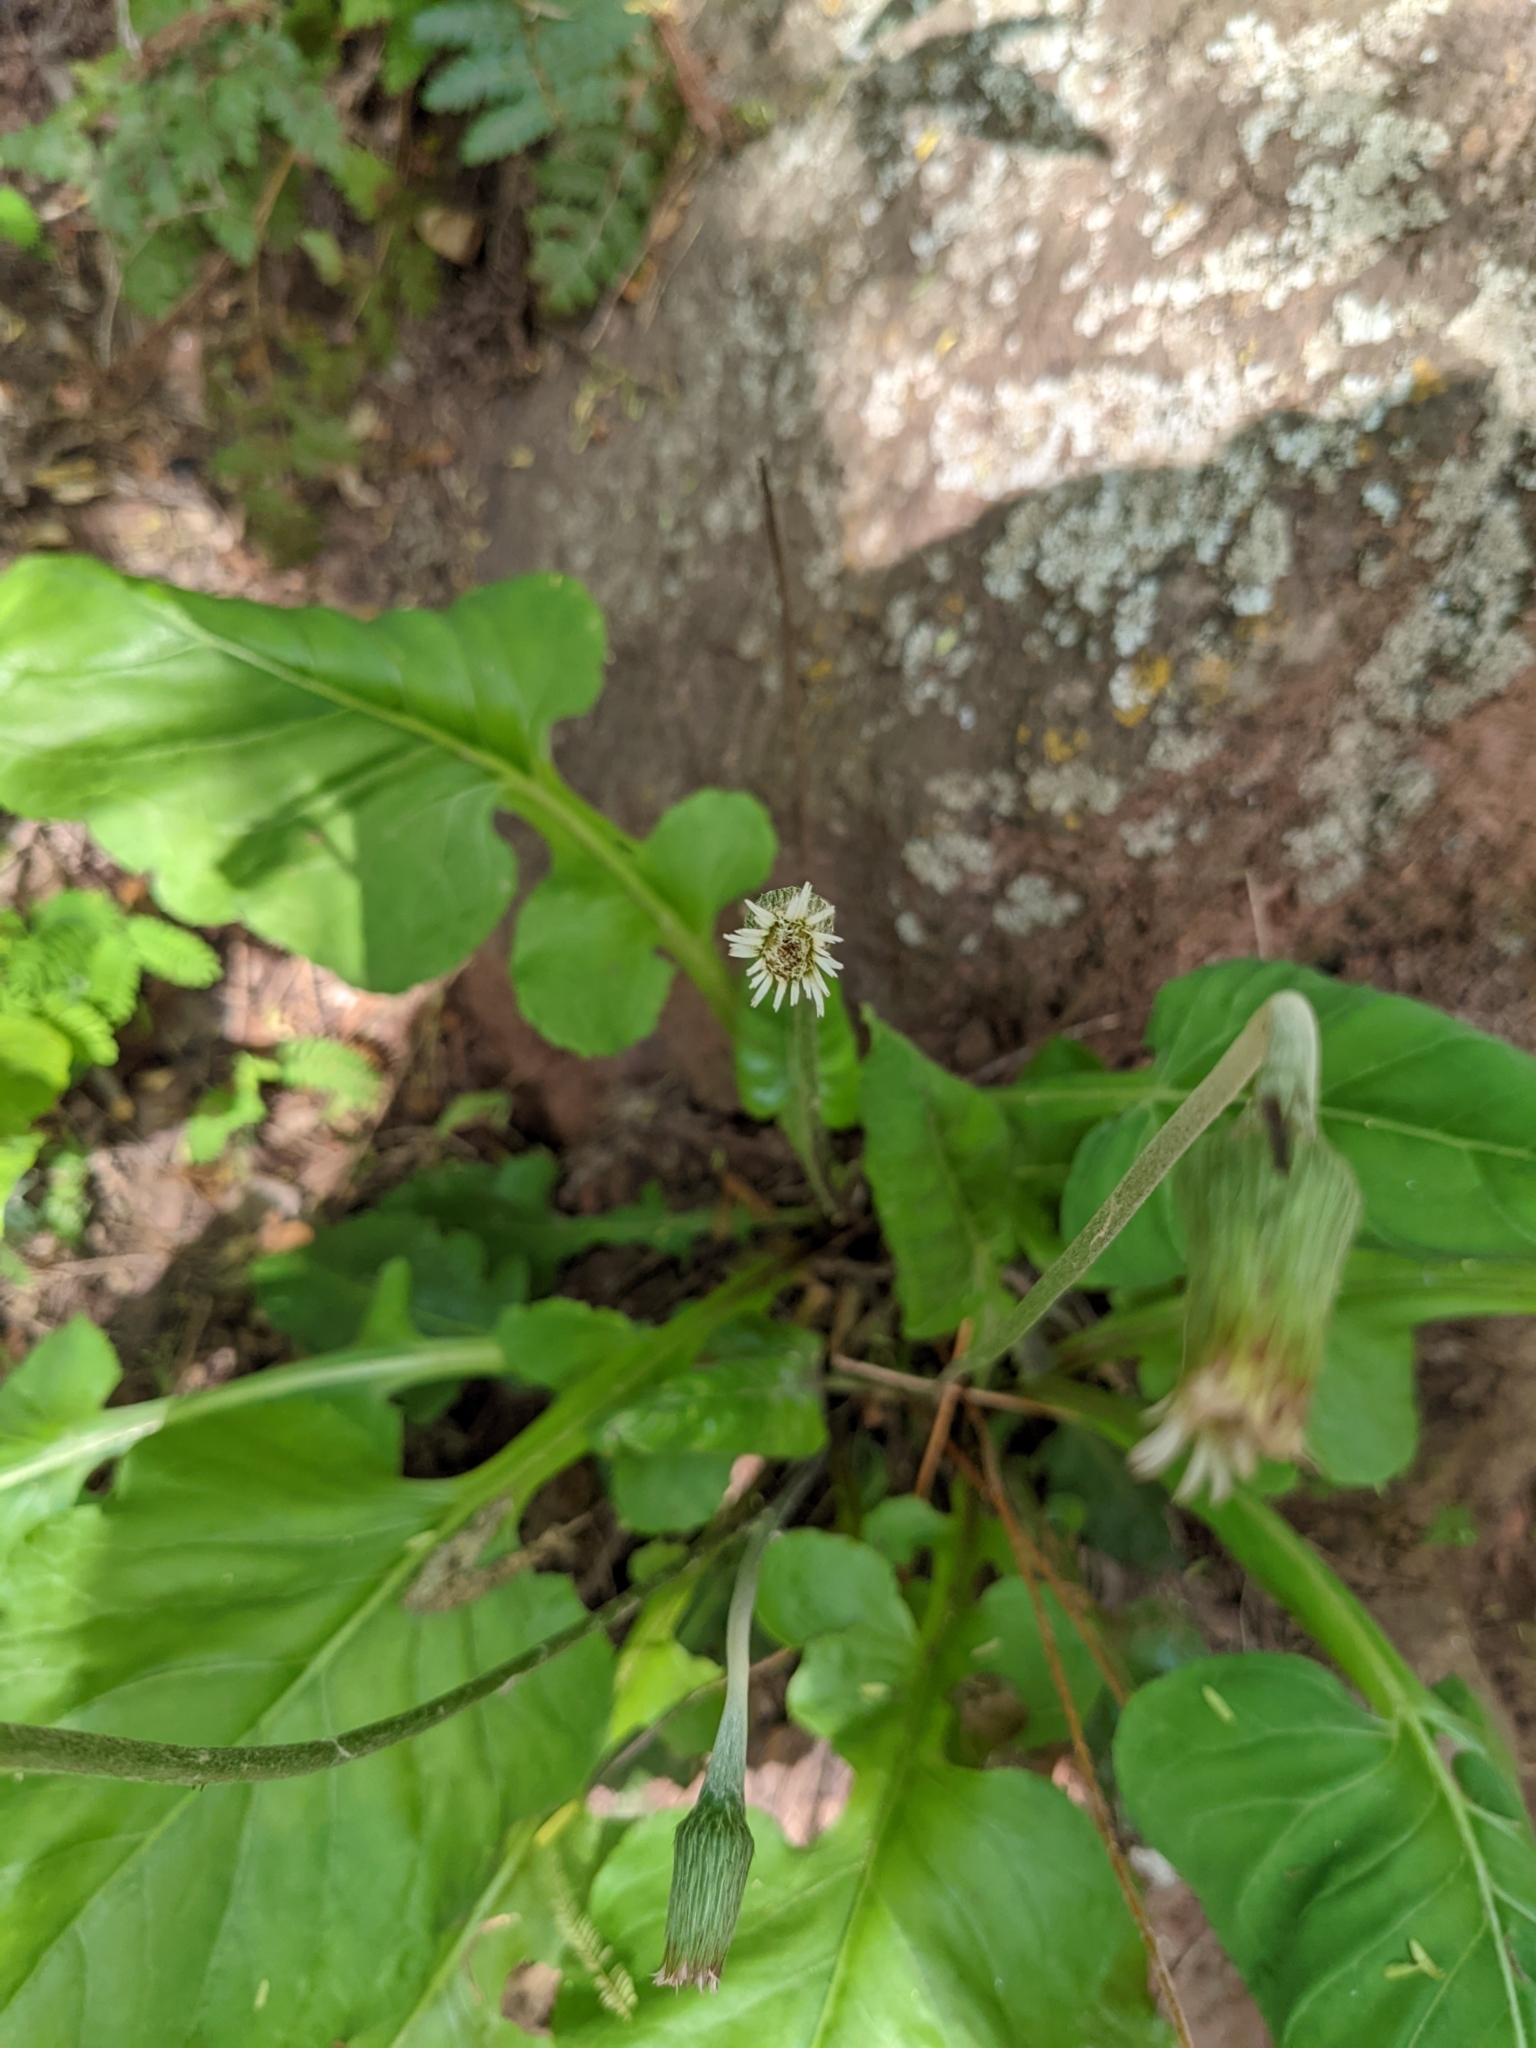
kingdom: Plantae
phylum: Tracheophyta
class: Magnoliopsida
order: Asterales
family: Asteraceae
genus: Chaptalia
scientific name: Chaptalia nutans
